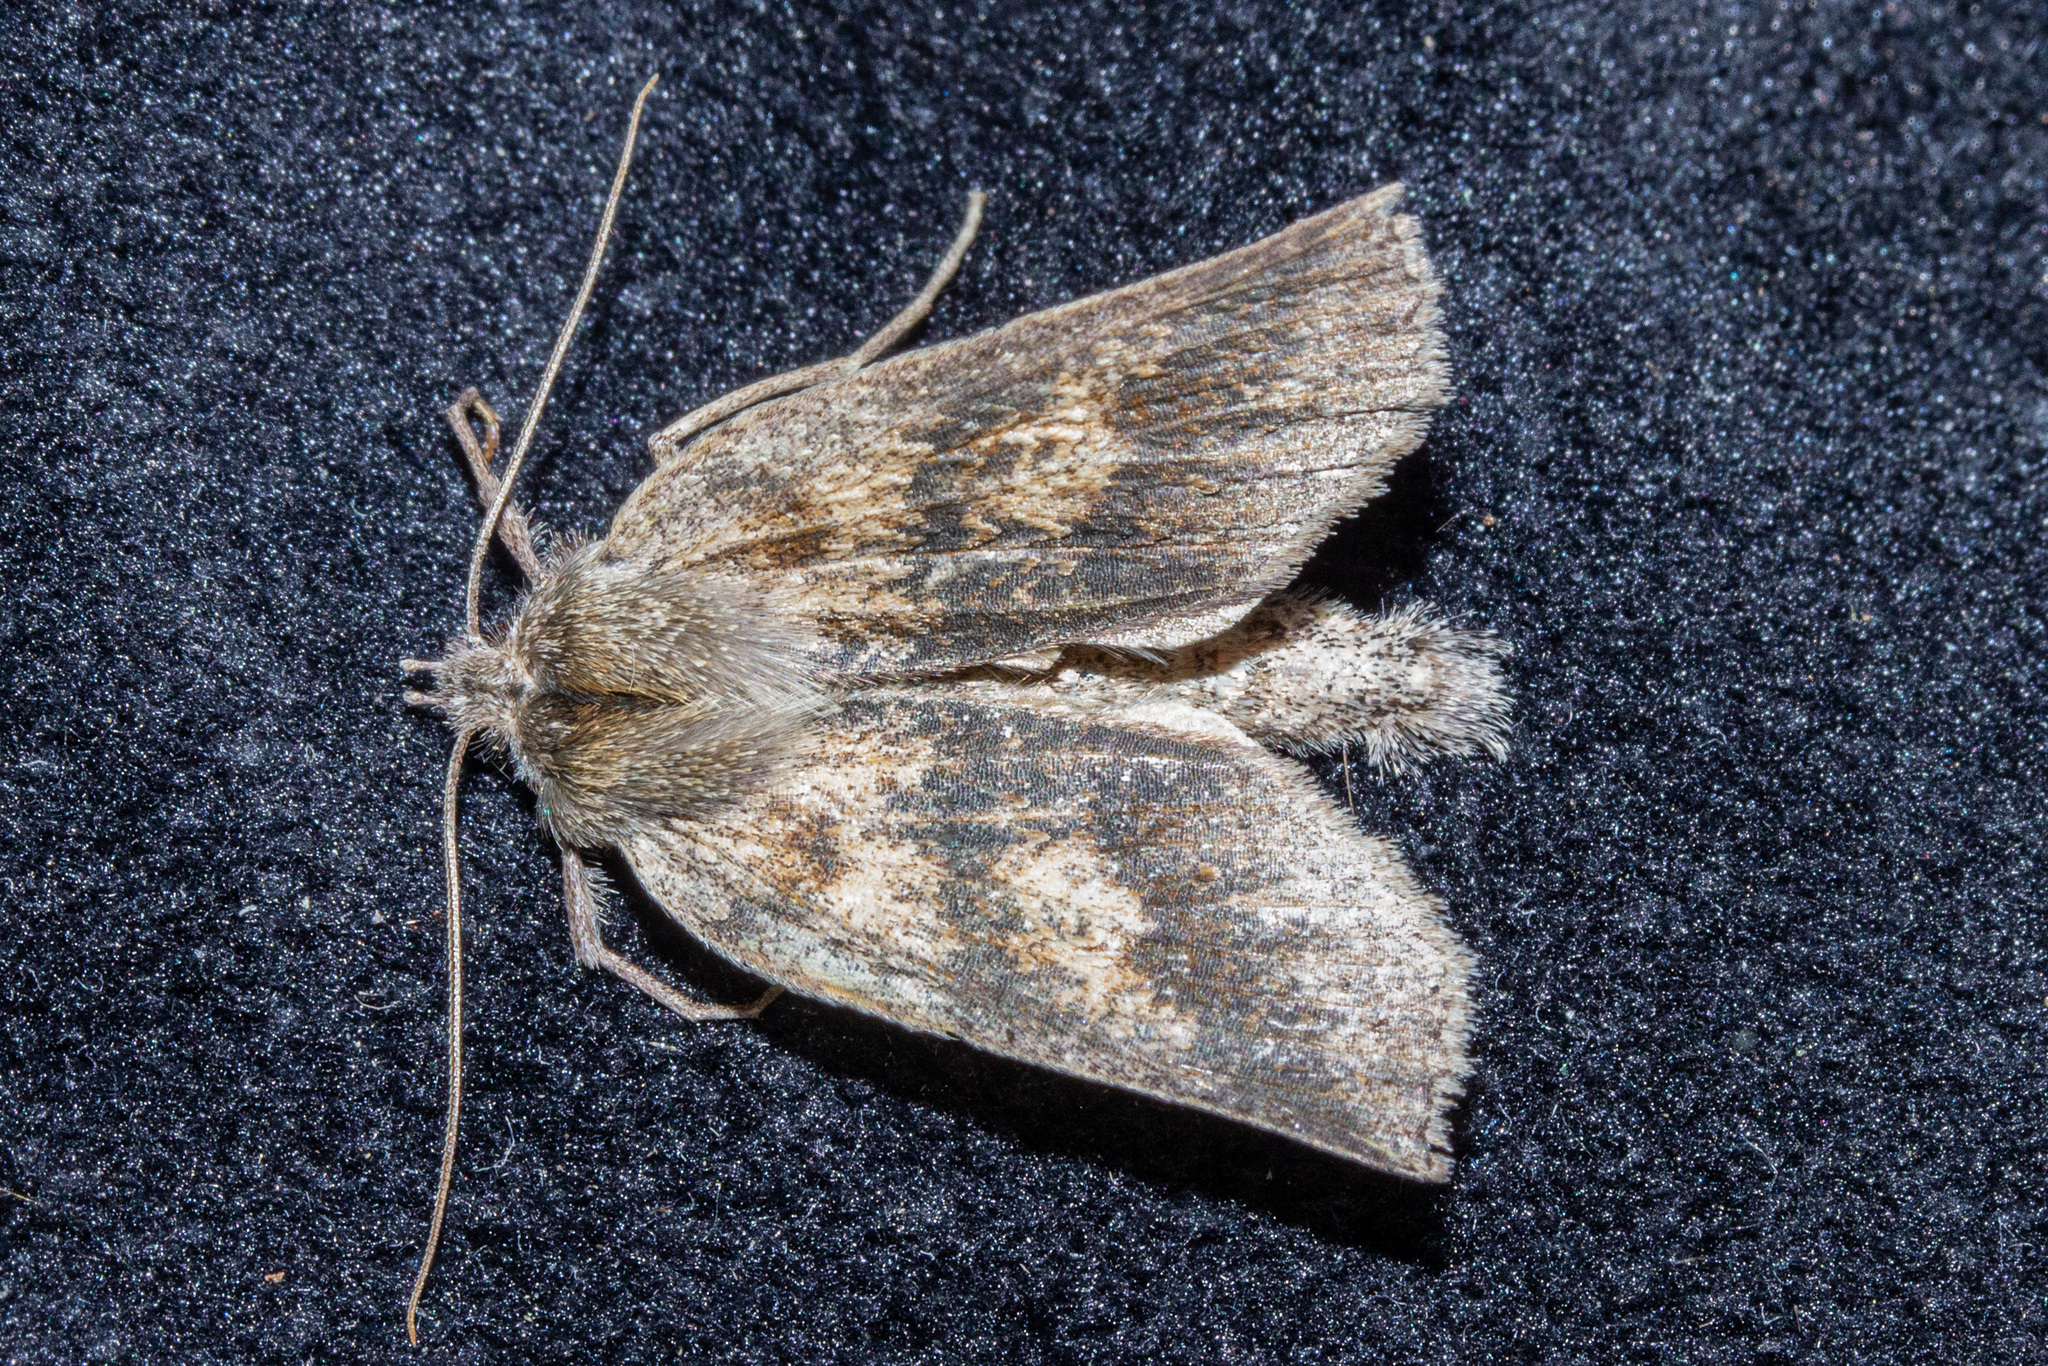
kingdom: Animalia
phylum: Arthropoda
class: Insecta
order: Lepidoptera
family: Geometridae
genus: Declana
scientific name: Declana leptomera
